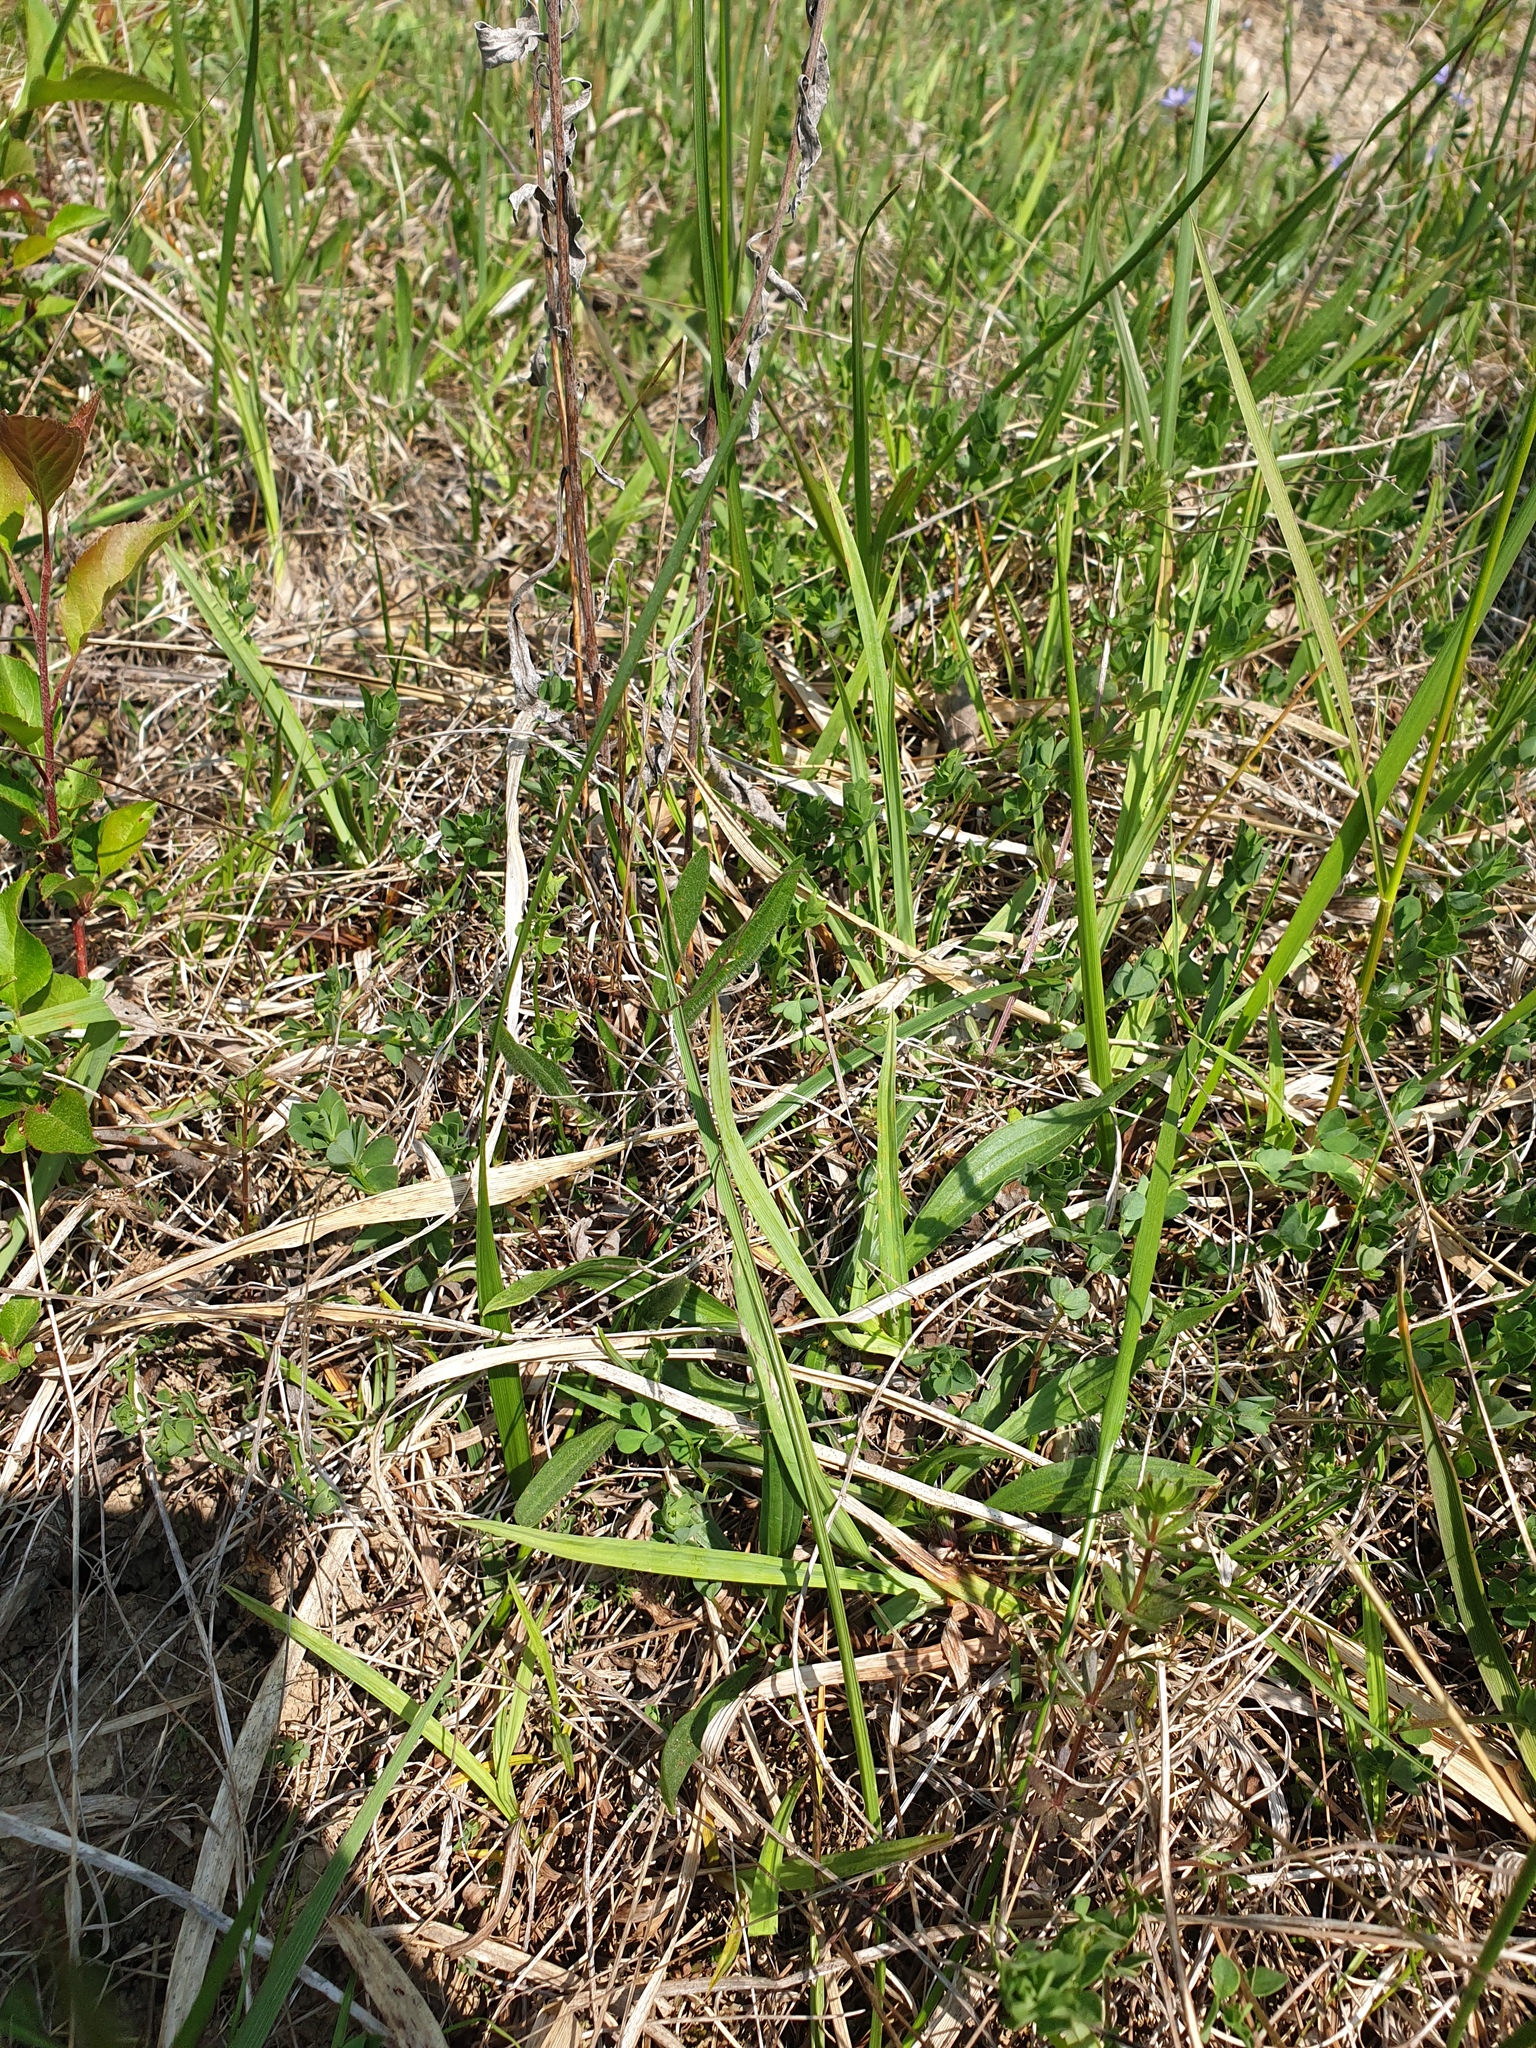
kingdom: Plantae
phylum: Tracheophyta
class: Liliopsida
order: Poales
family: Cyperaceae
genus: Carex
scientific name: Carex granularis
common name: Granular sedge
